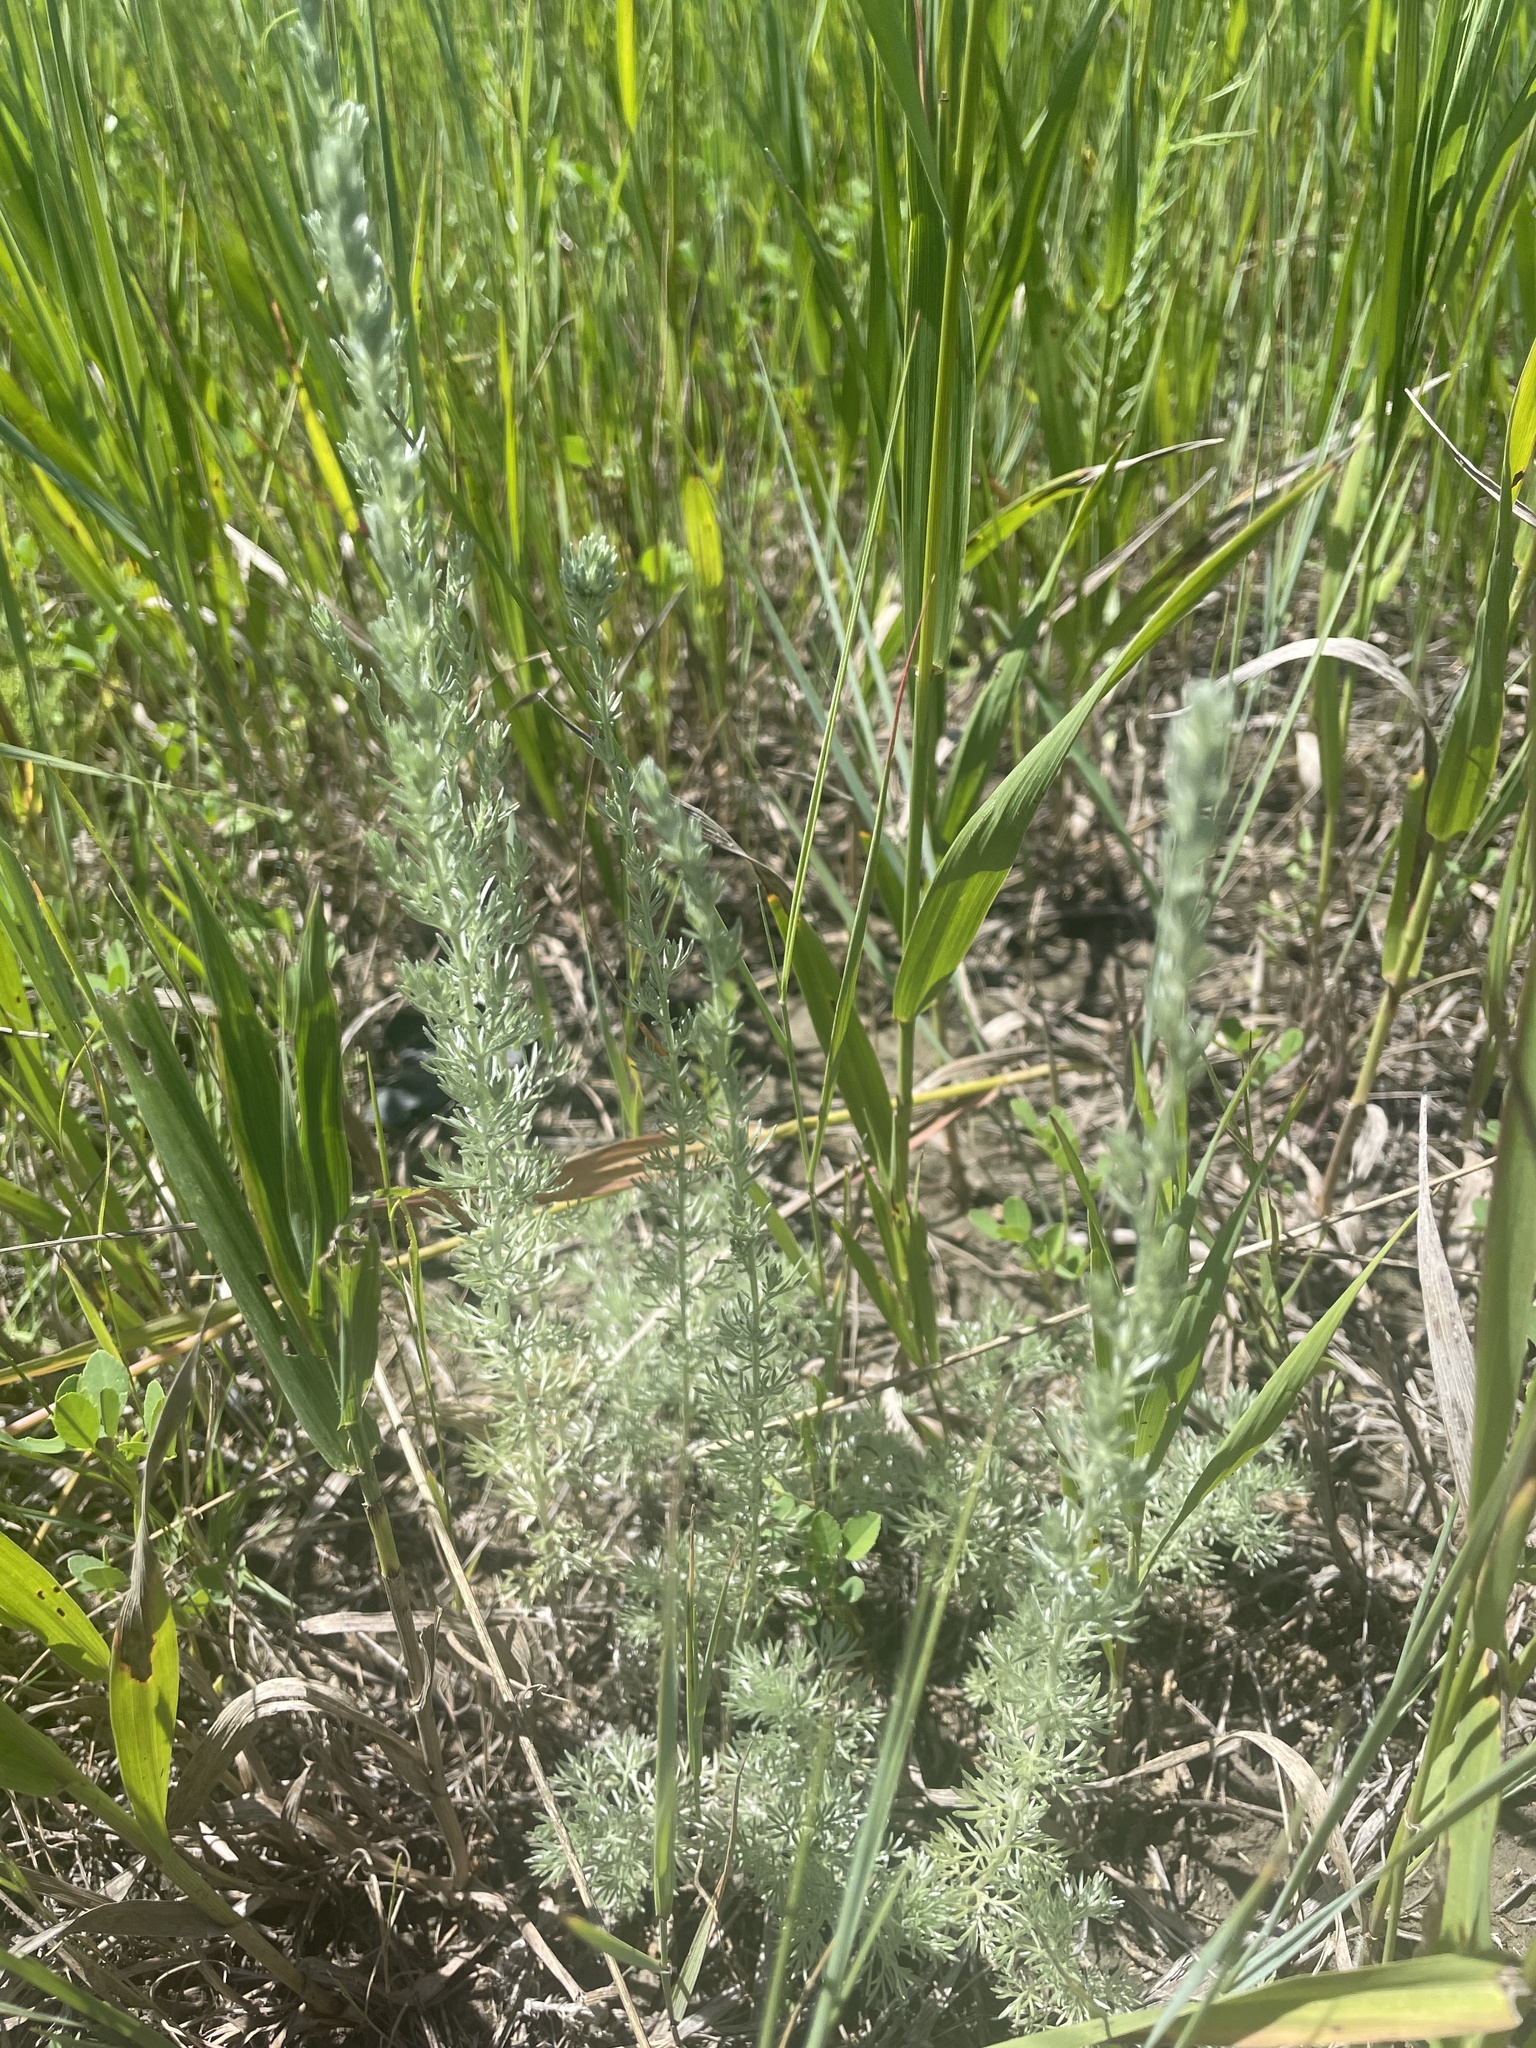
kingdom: Plantae
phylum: Tracheophyta
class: Magnoliopsida
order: Asterales
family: Asteraceae
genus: Artemisia
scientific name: Artemisia frigida
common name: Prairie sagewort
